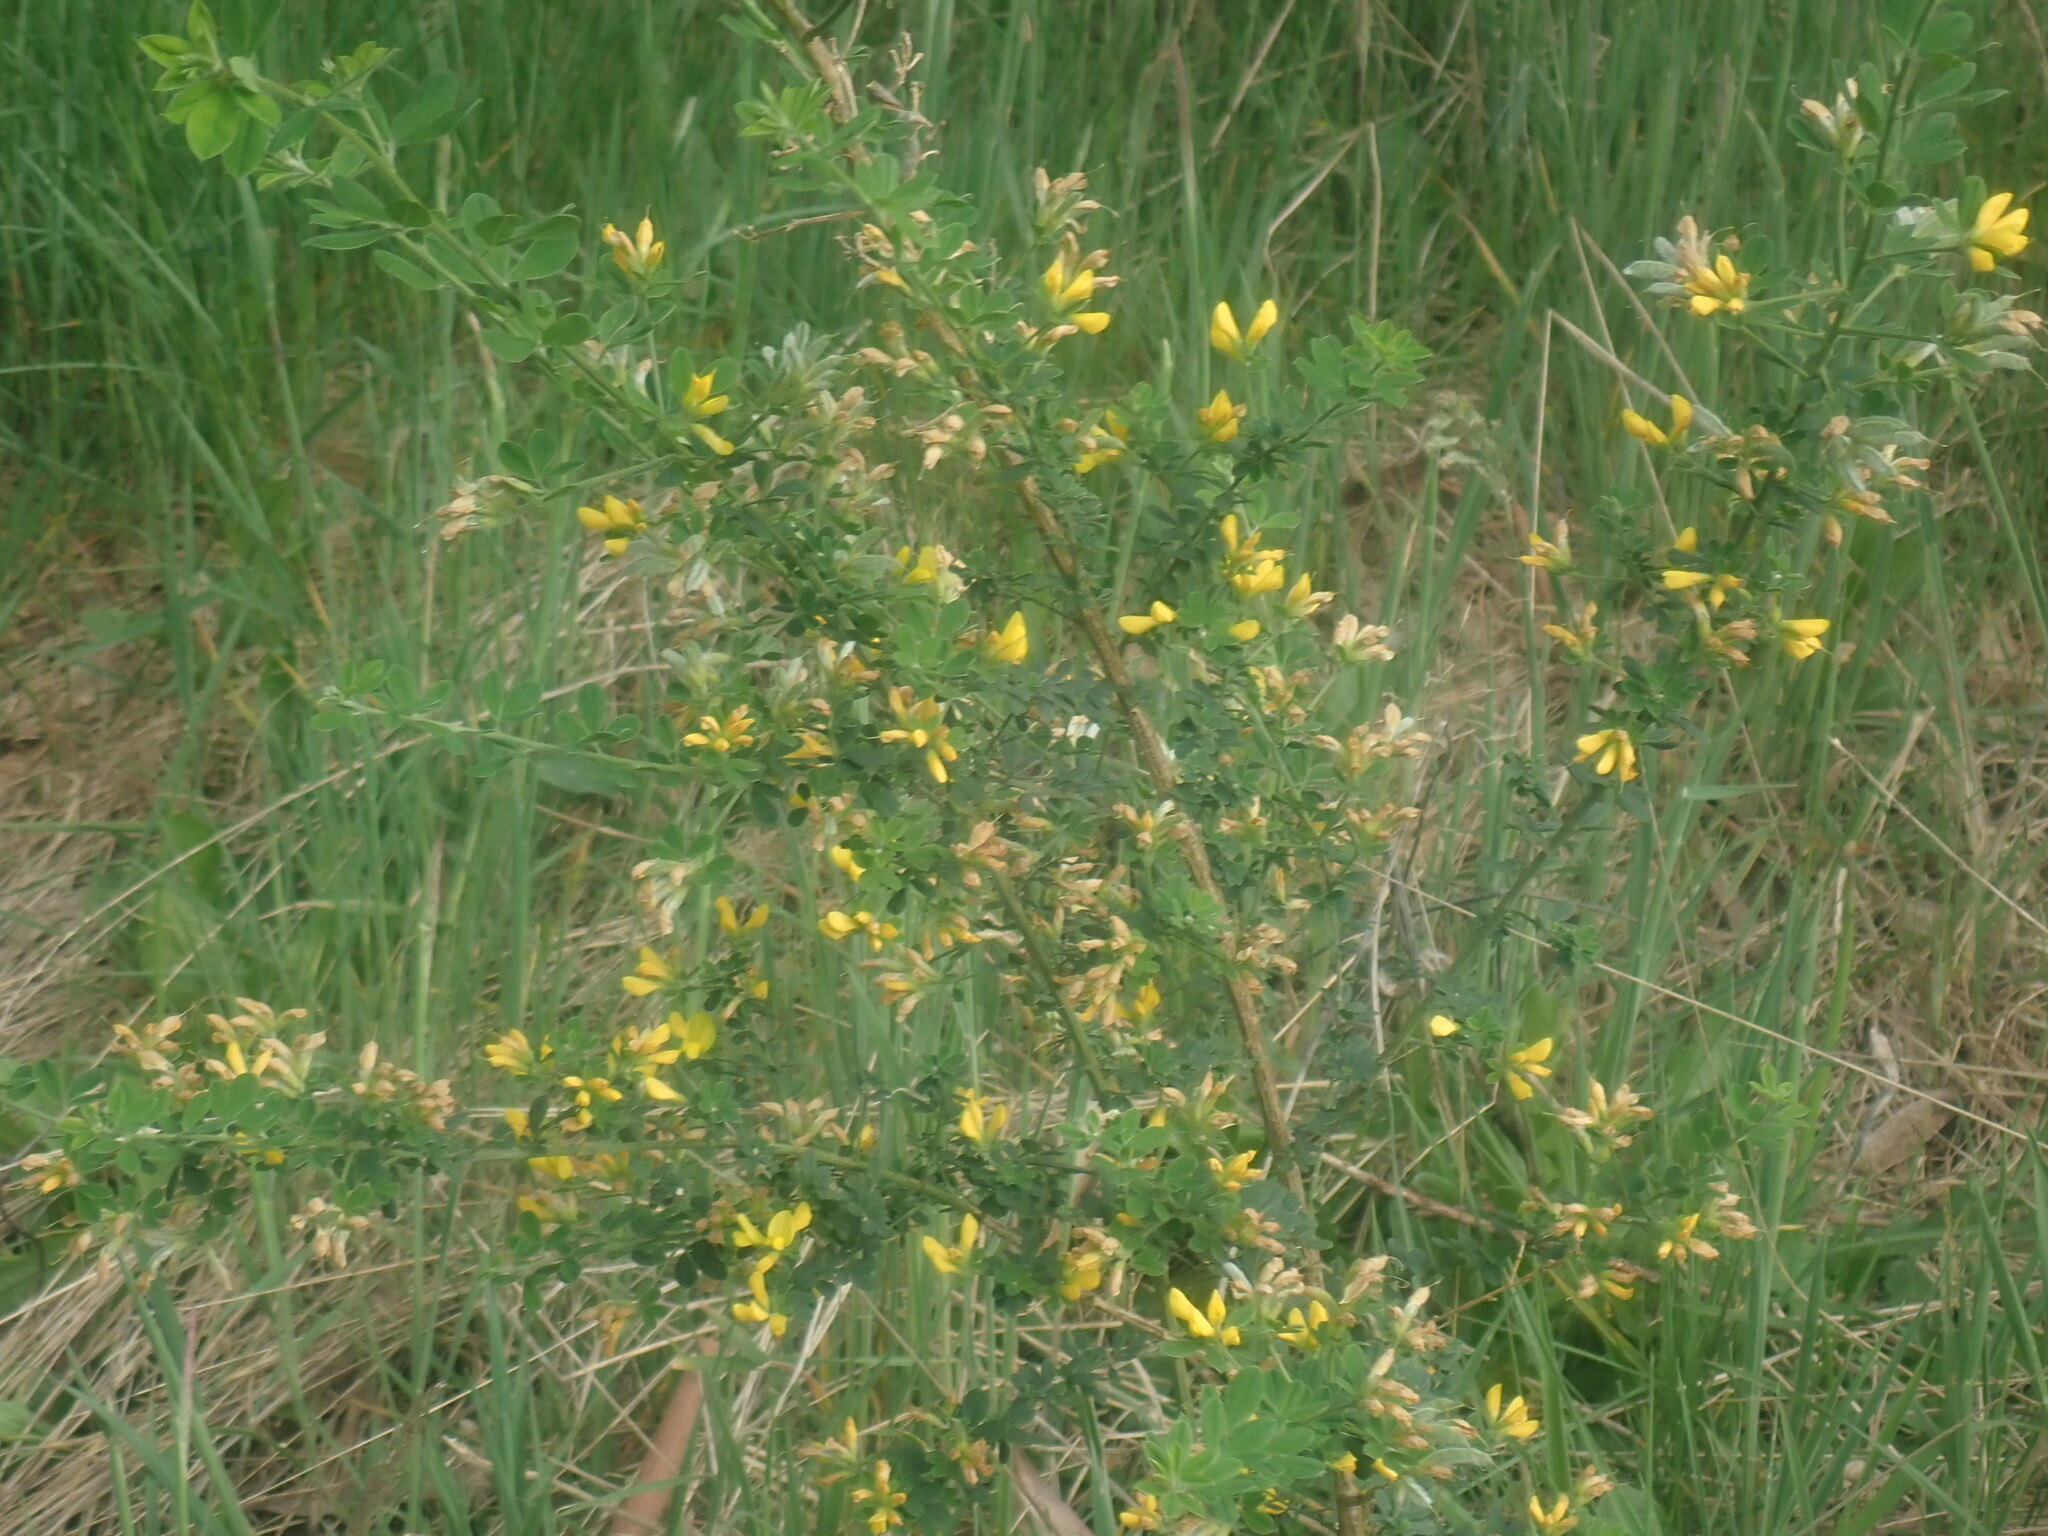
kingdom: Plantae
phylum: Tracheophyta
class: Magnoliopsida
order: Fabales
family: Fabaceae
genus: Genista
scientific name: Genista monspessulana
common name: Montpellier broom
